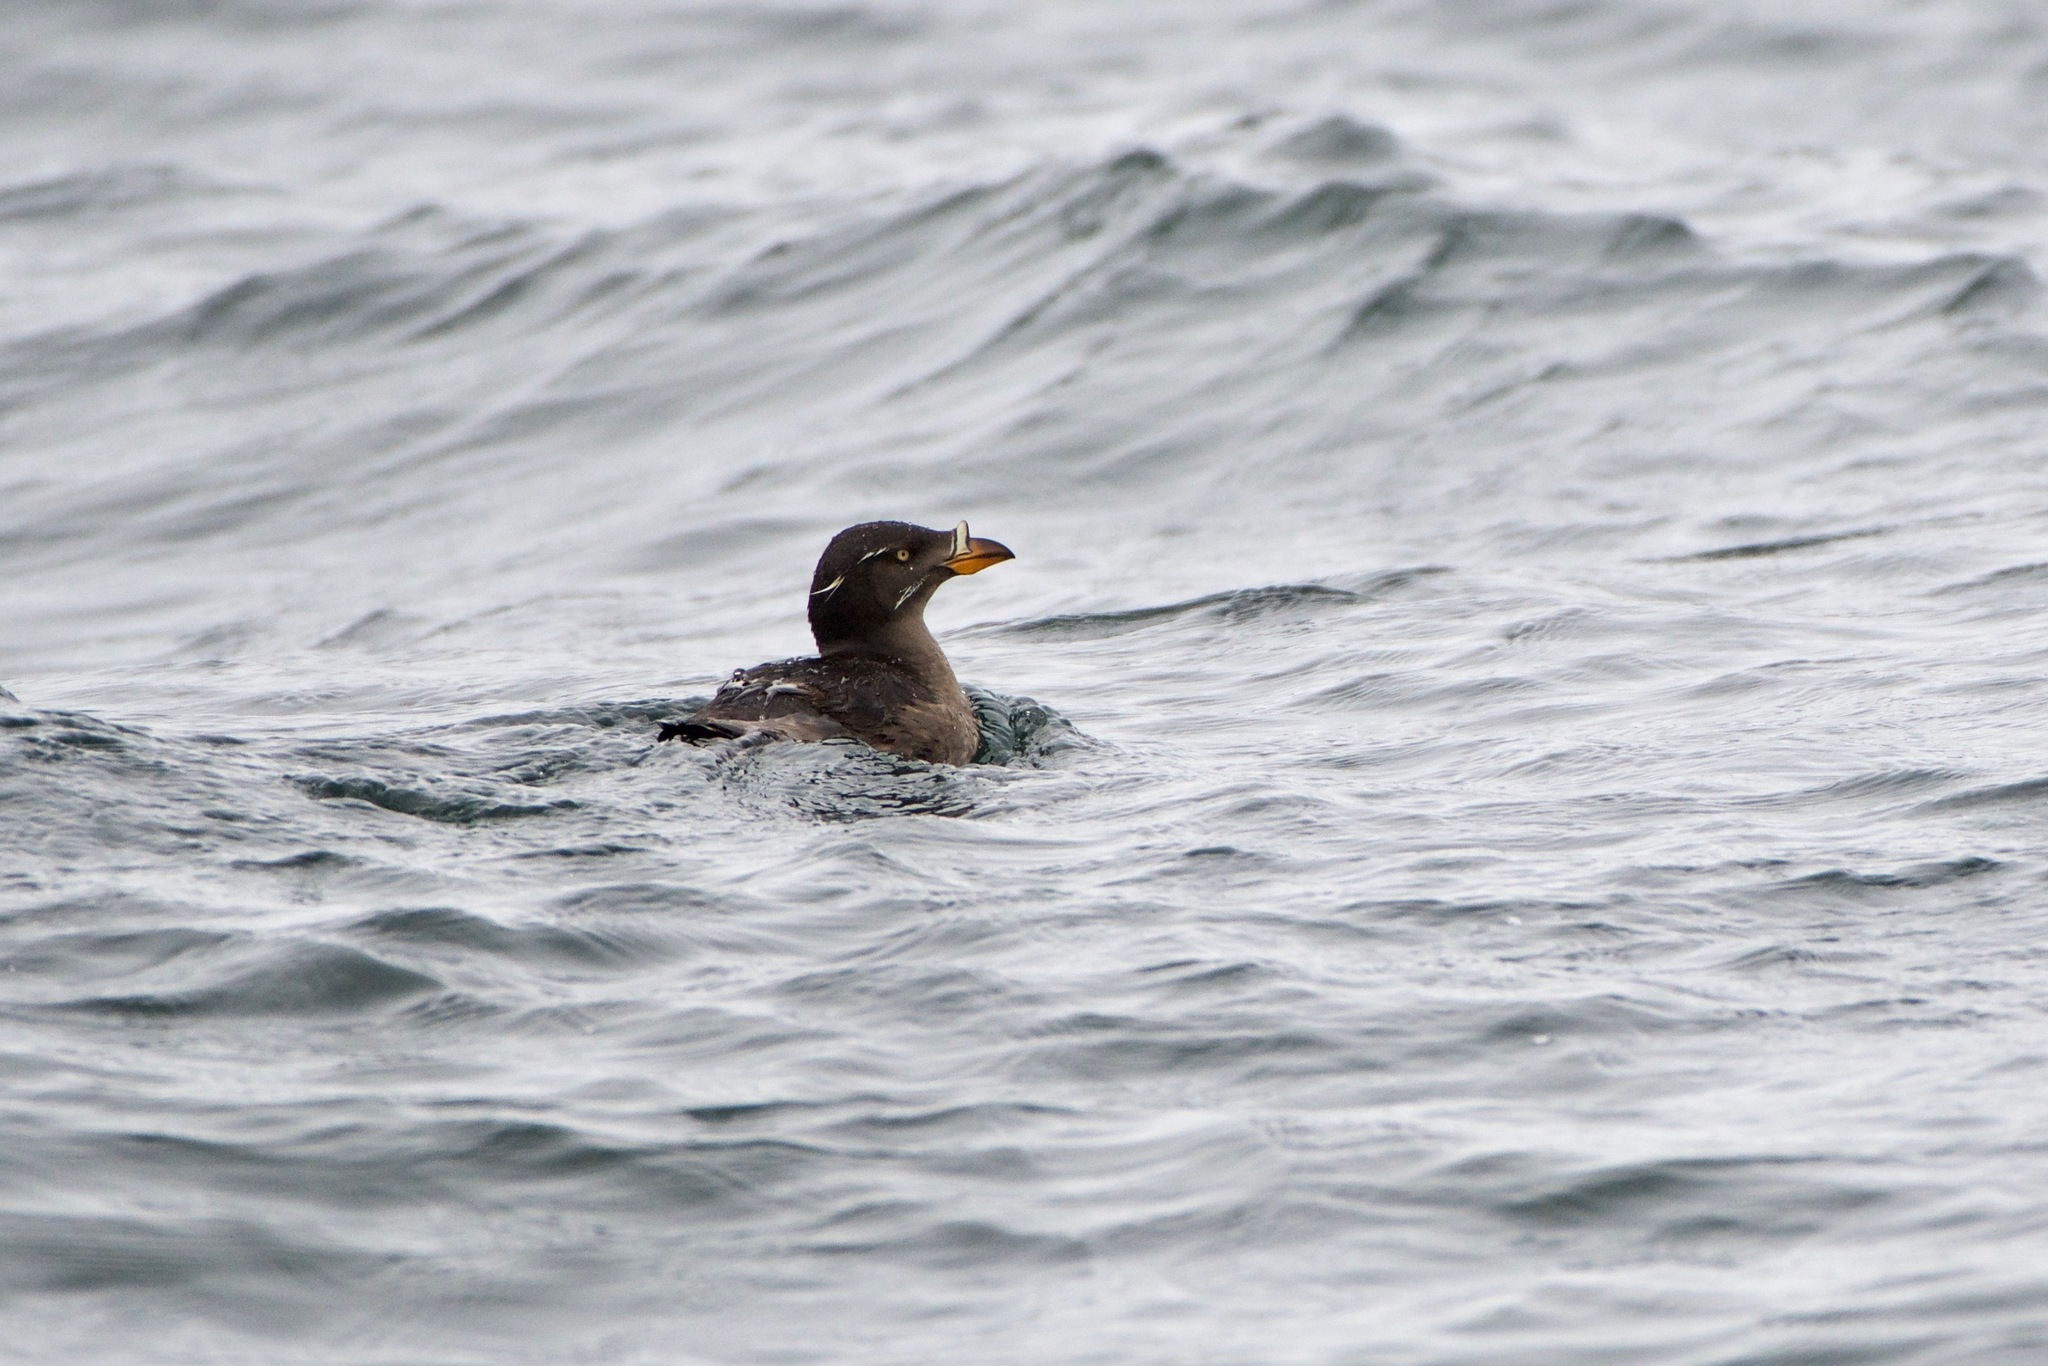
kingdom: Animalia
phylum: Chordata
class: Aves
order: Charadriiformes
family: Alcidae
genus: Cerorhinca
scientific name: Cerorhinca monocerata
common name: Rhinoceros auklet
